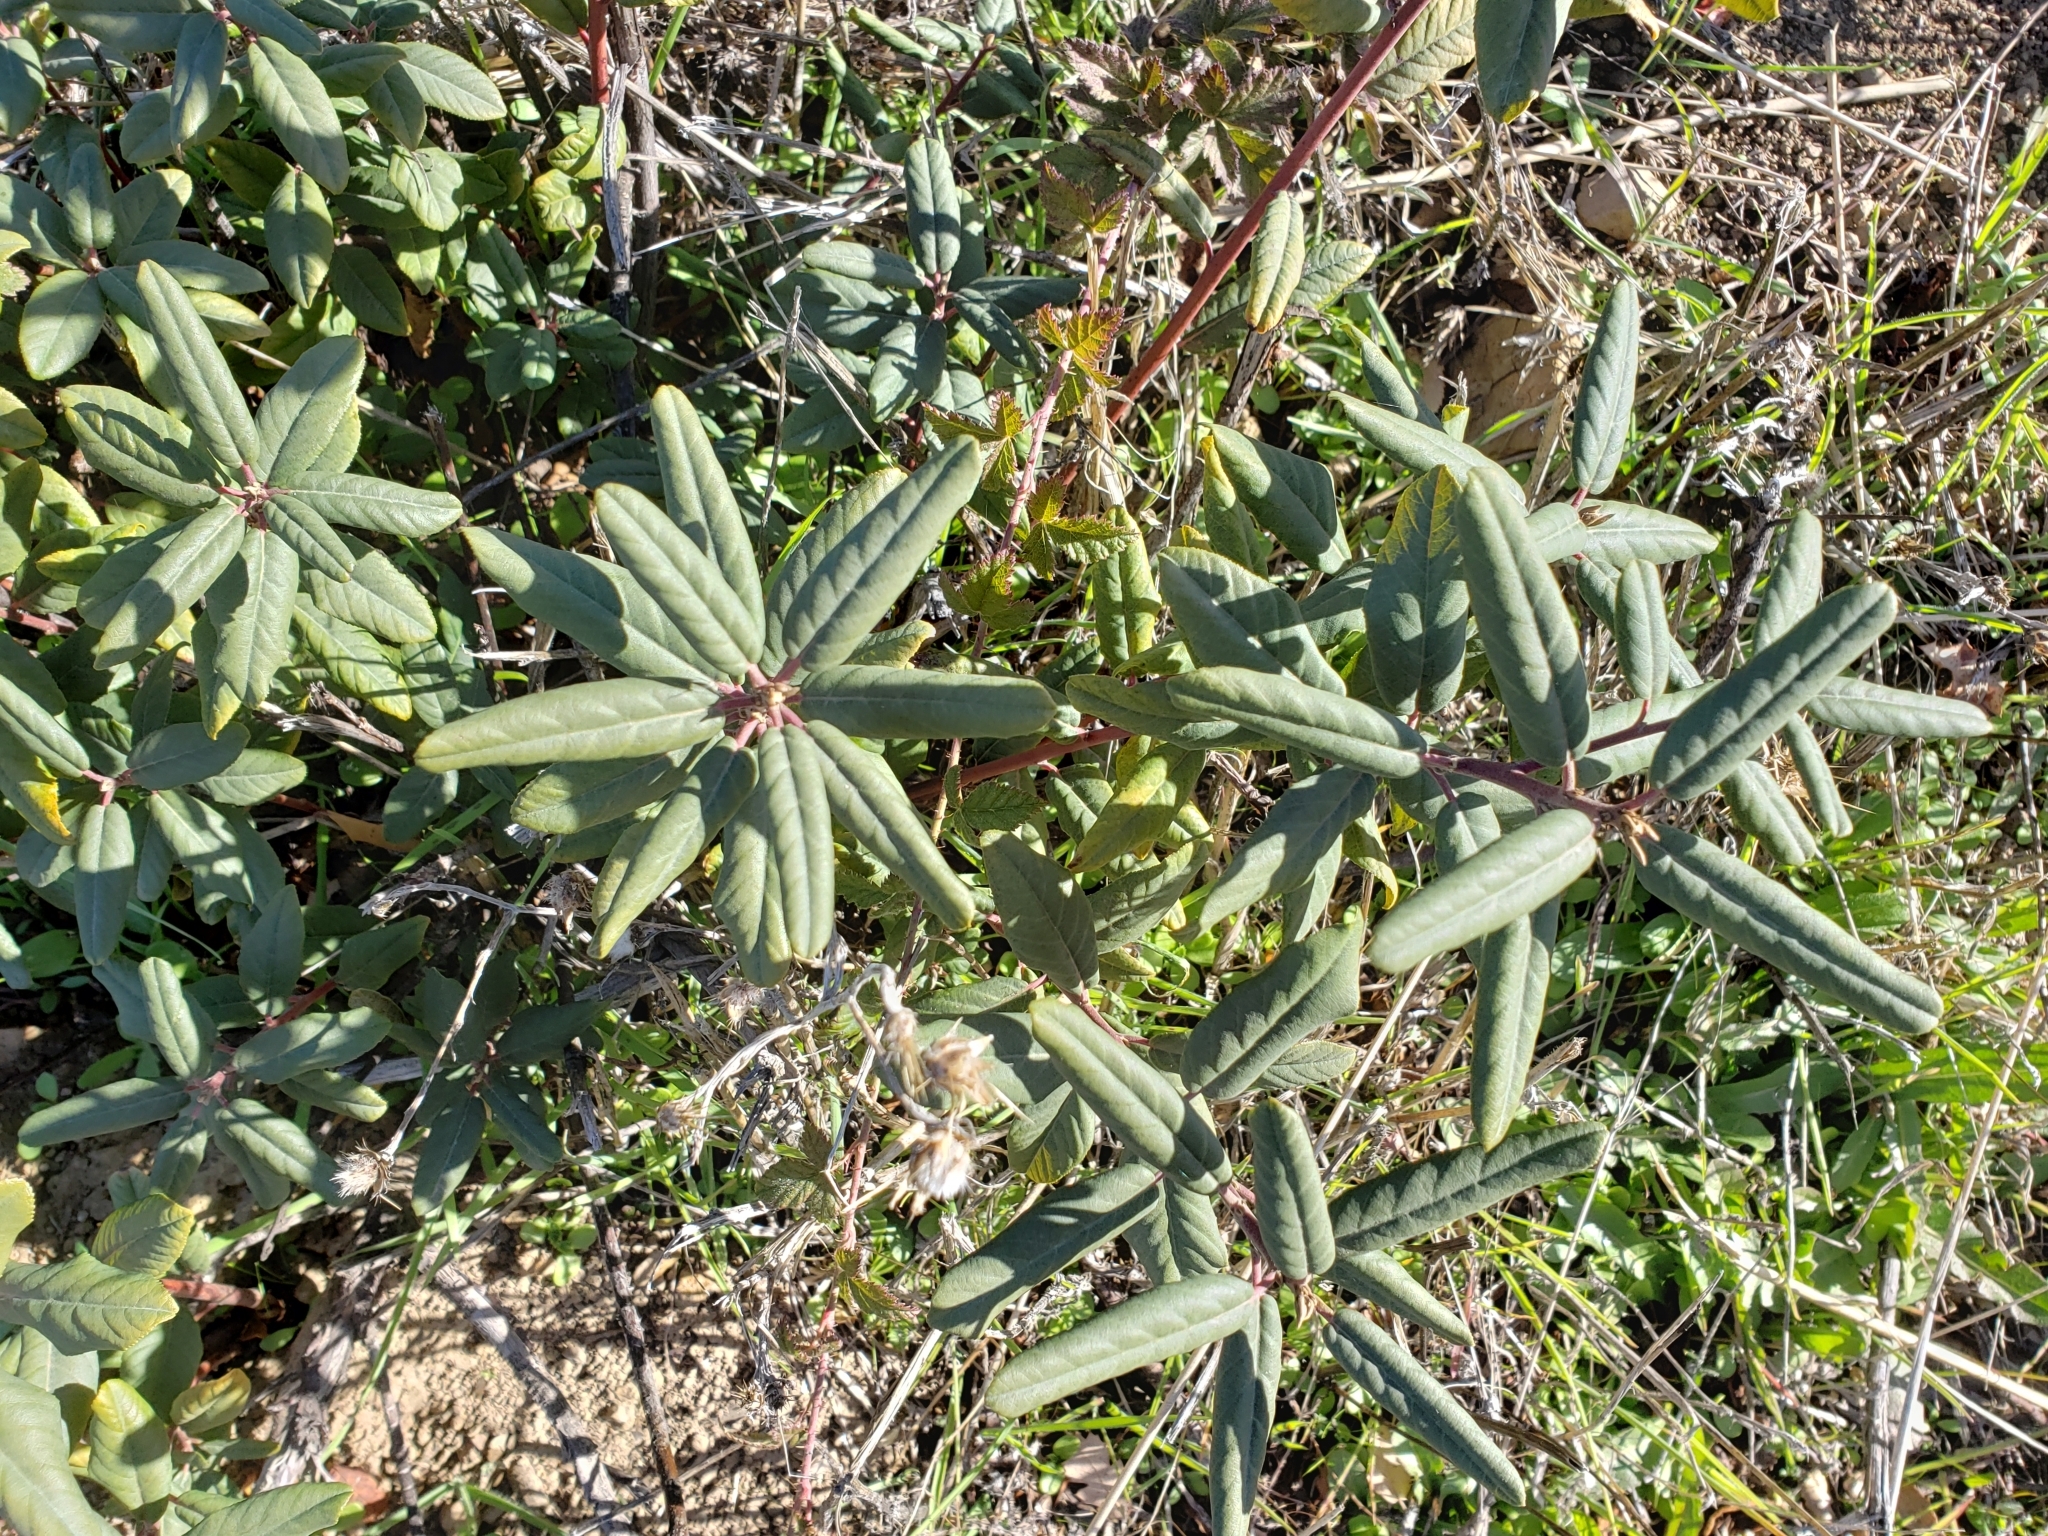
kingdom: Plantae
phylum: Tracheophyta
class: Magnoliopsida
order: Rosales
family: Rhamnaceae
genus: Frangula
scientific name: Frangula californica
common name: California buckthorn
